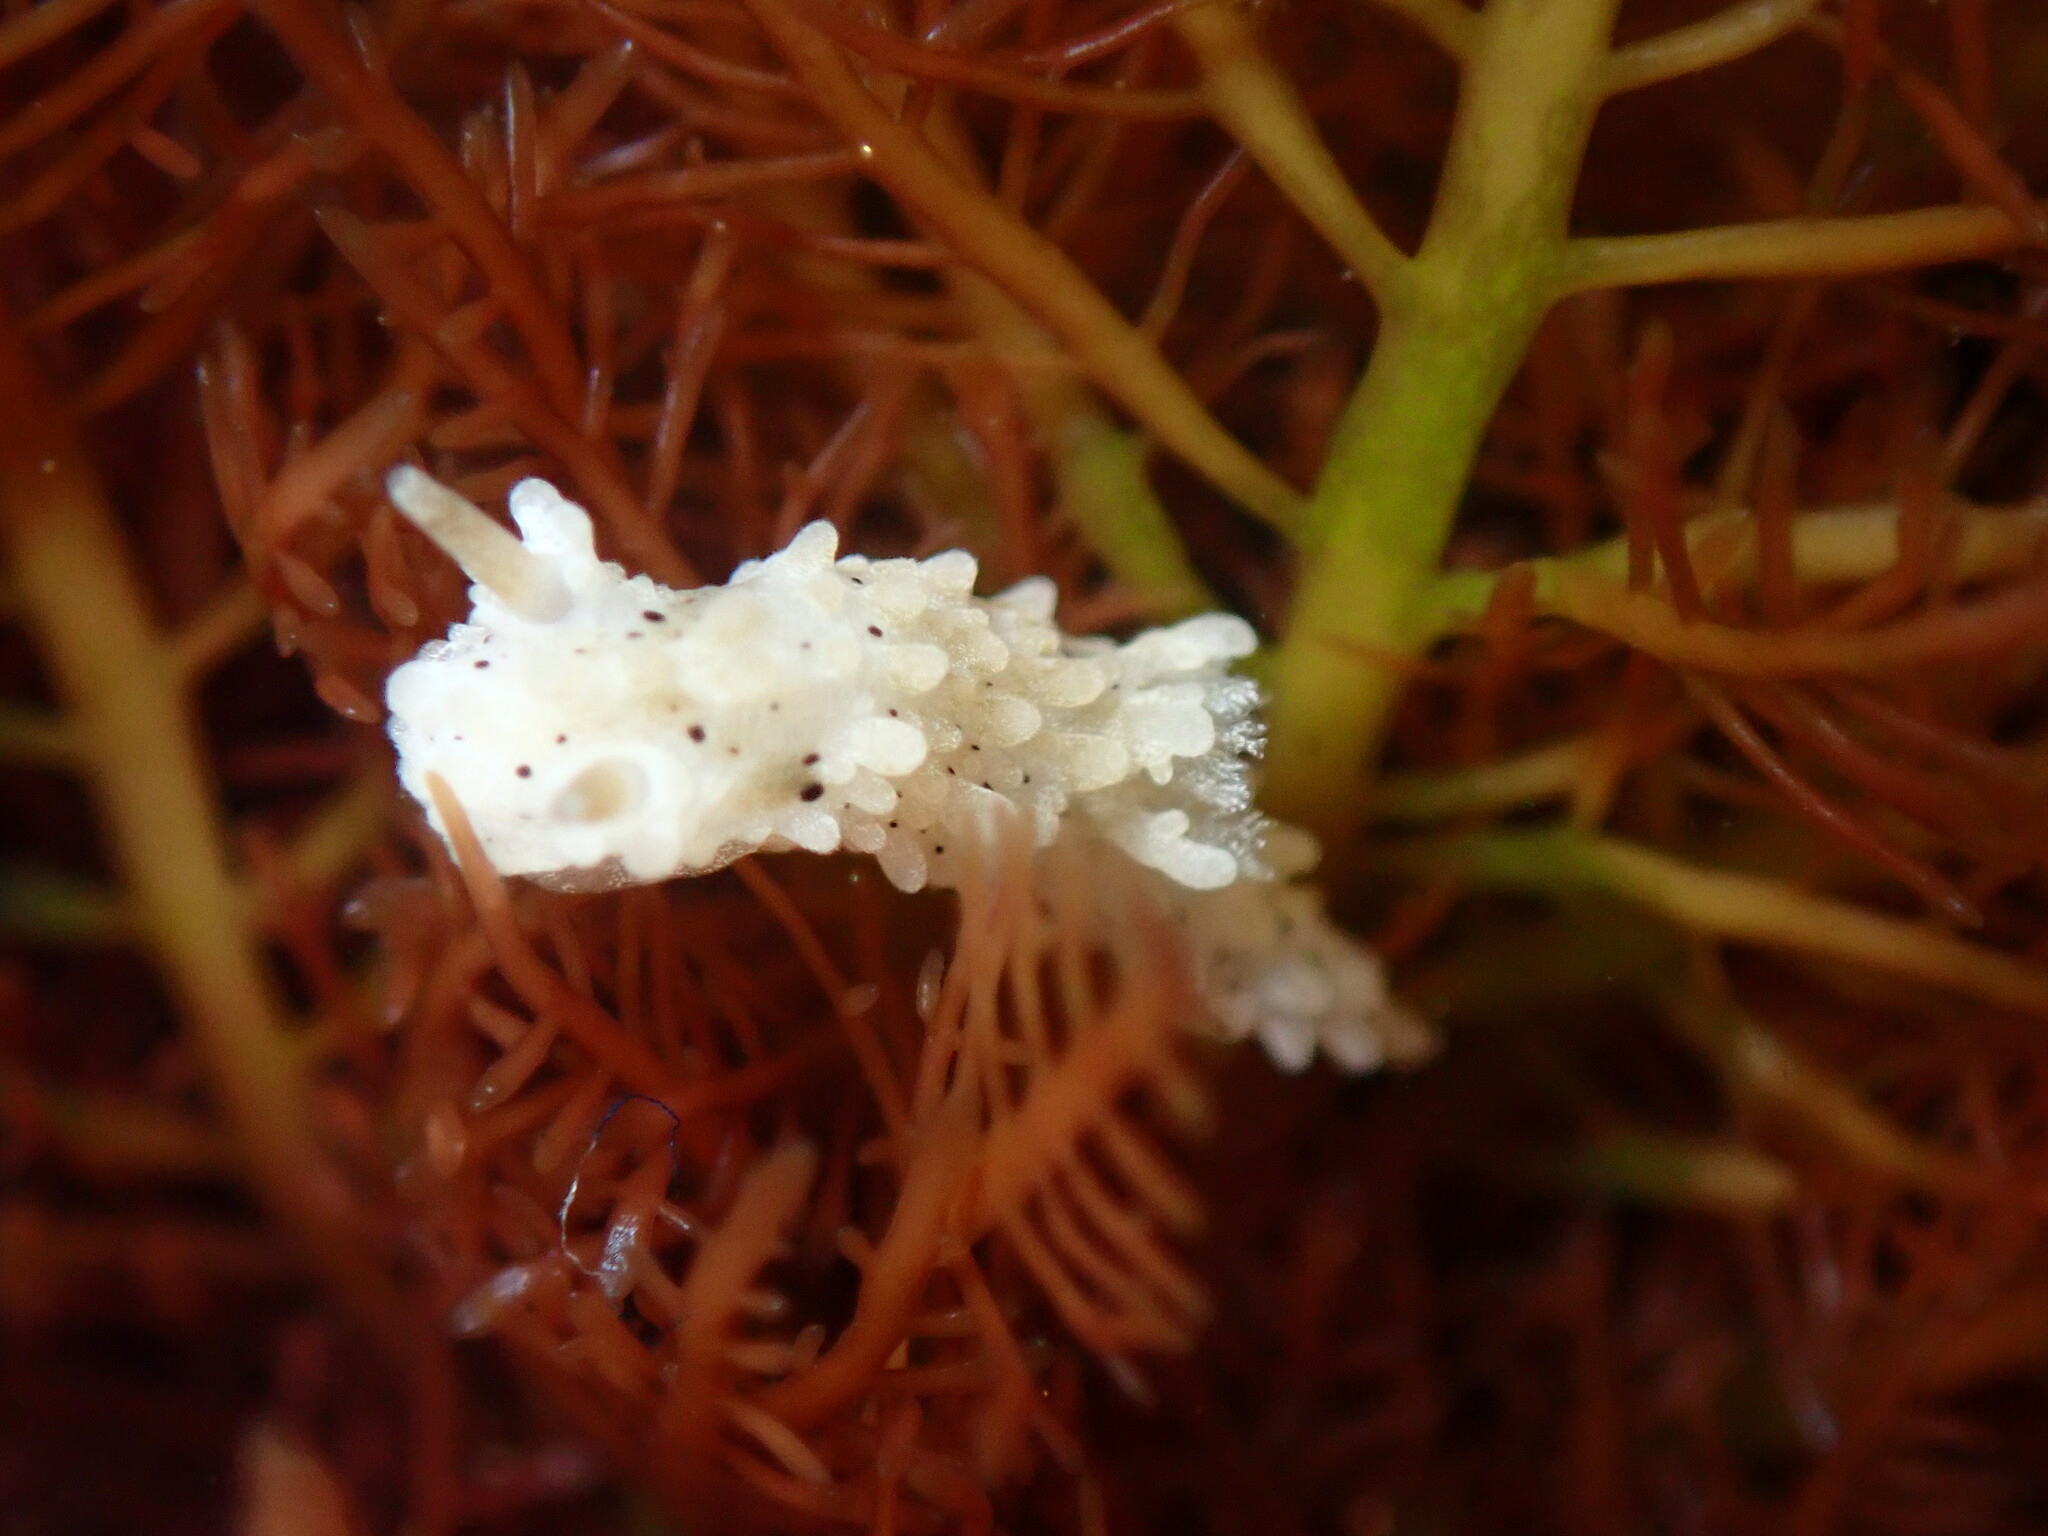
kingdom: Animalia
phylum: Mollusca
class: Gastropoda
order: Nudibranchia
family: Aegiridae
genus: Aegires
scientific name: Aegires albopunctatus
